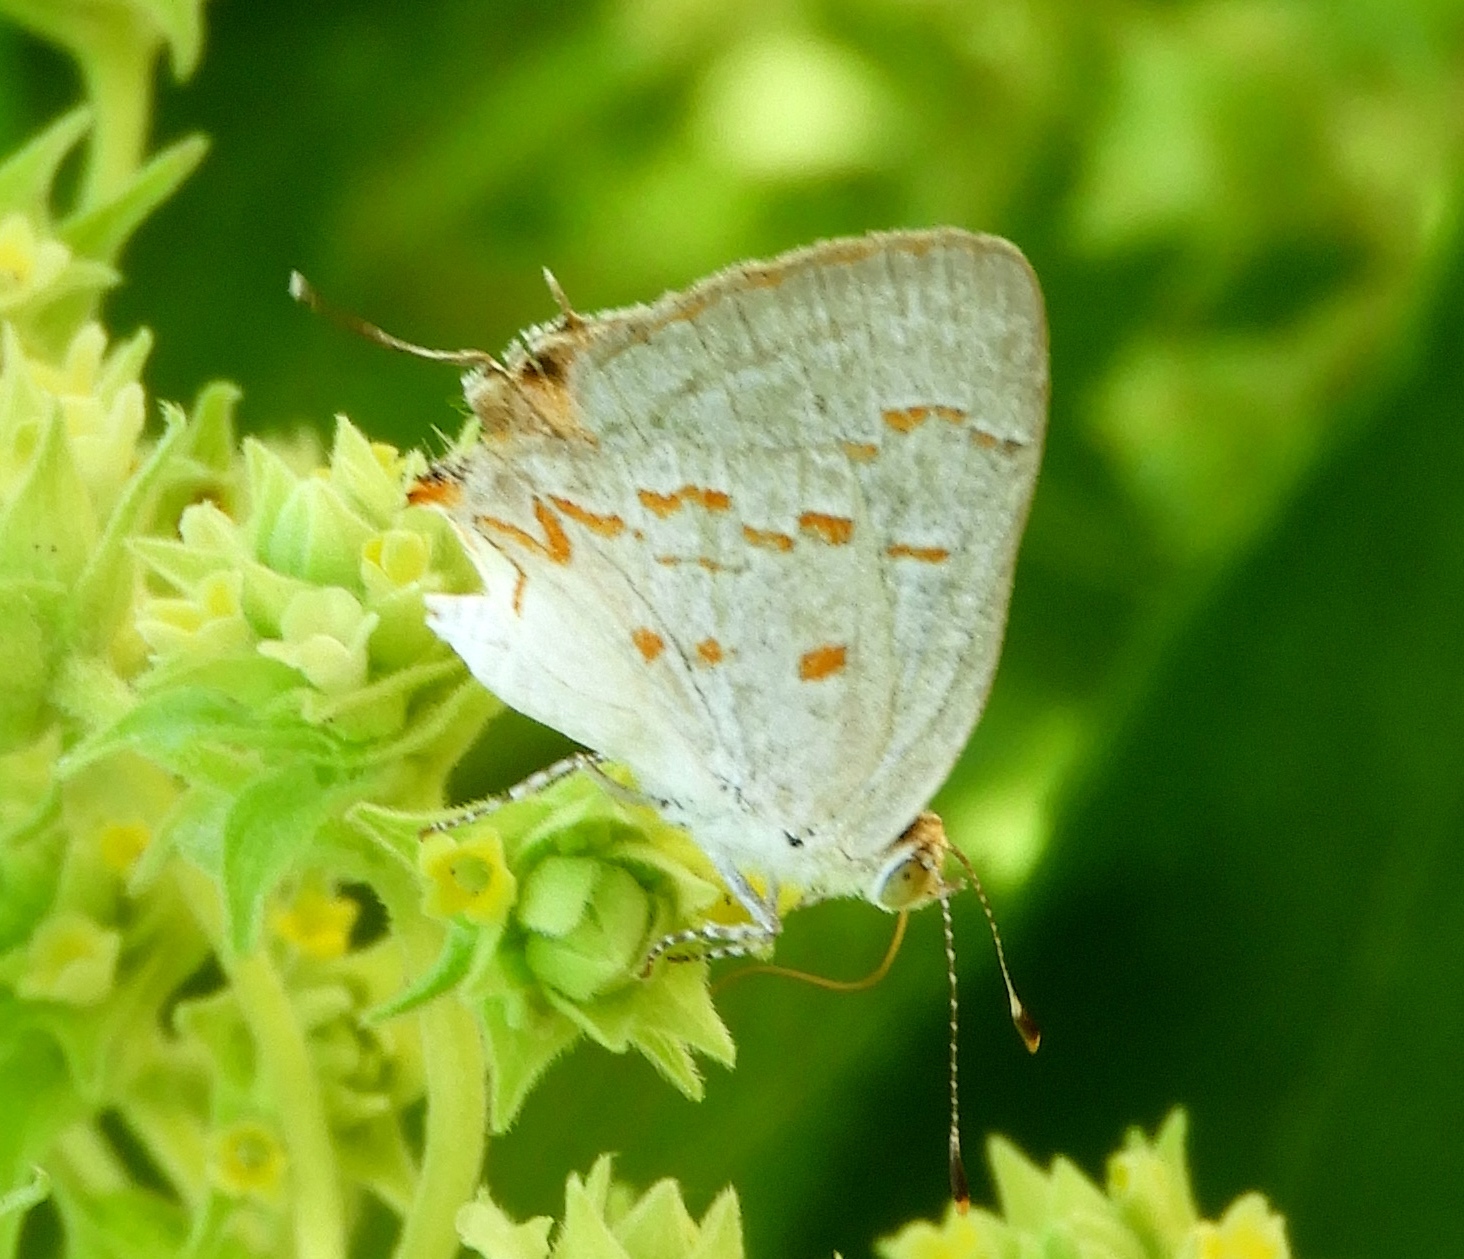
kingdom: Animalia
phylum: Arthropoda
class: Insecta
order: Lepidoptera
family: Lycaenidae
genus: Ministrymon
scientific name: Ministrymon
